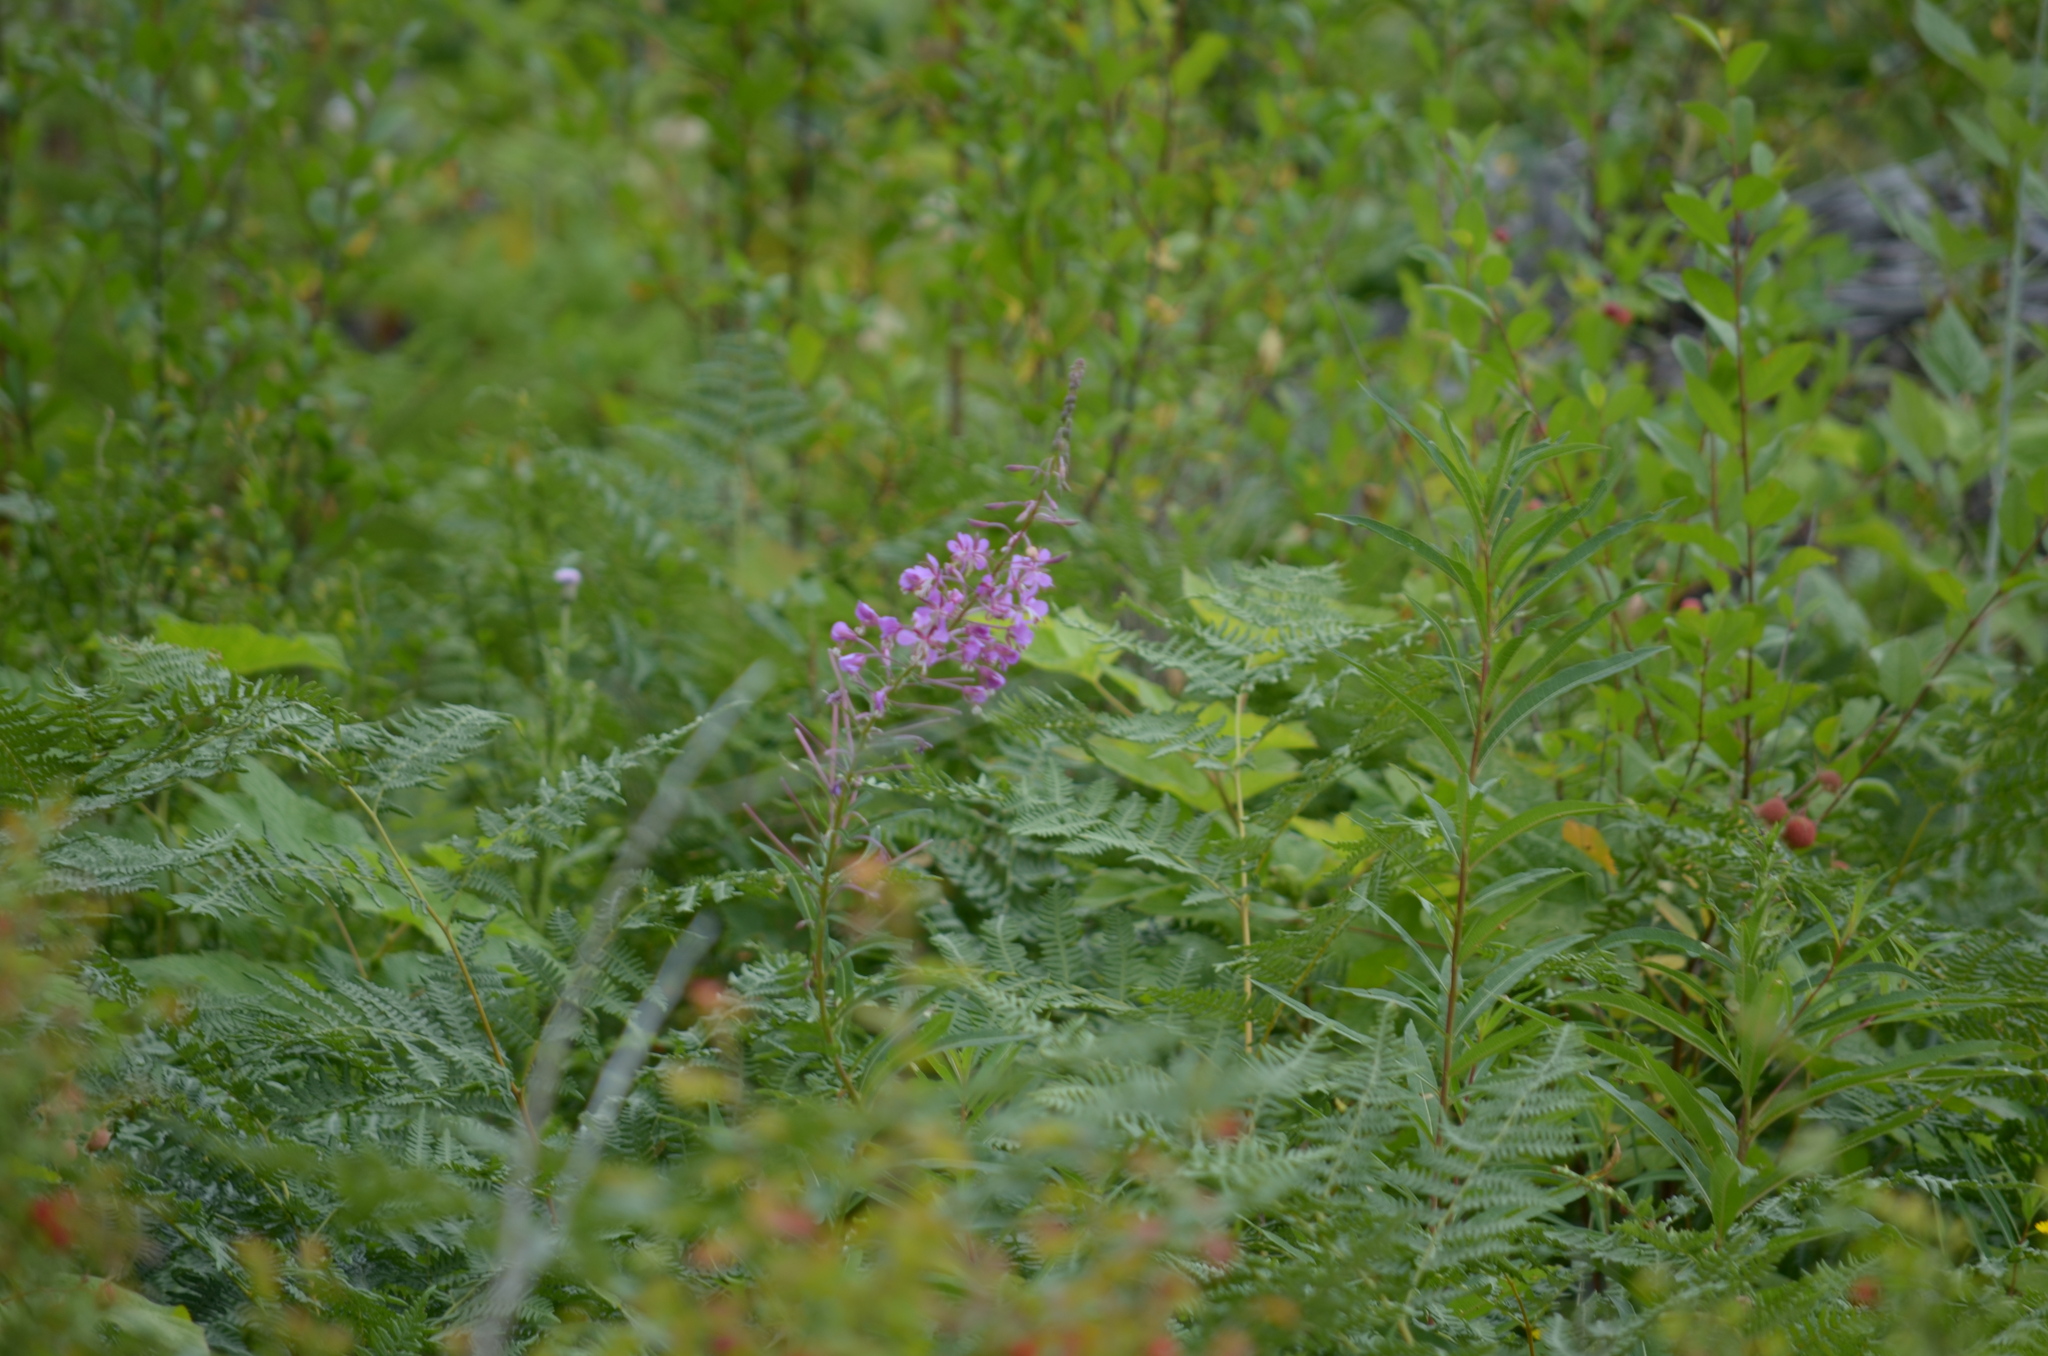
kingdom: Plantae
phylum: Tracheophyta
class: Magnoliopsida
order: Myrtales
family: Onagraceae
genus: Chamaenerion
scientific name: Chamaenerion angustifolium
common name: Fireweed
